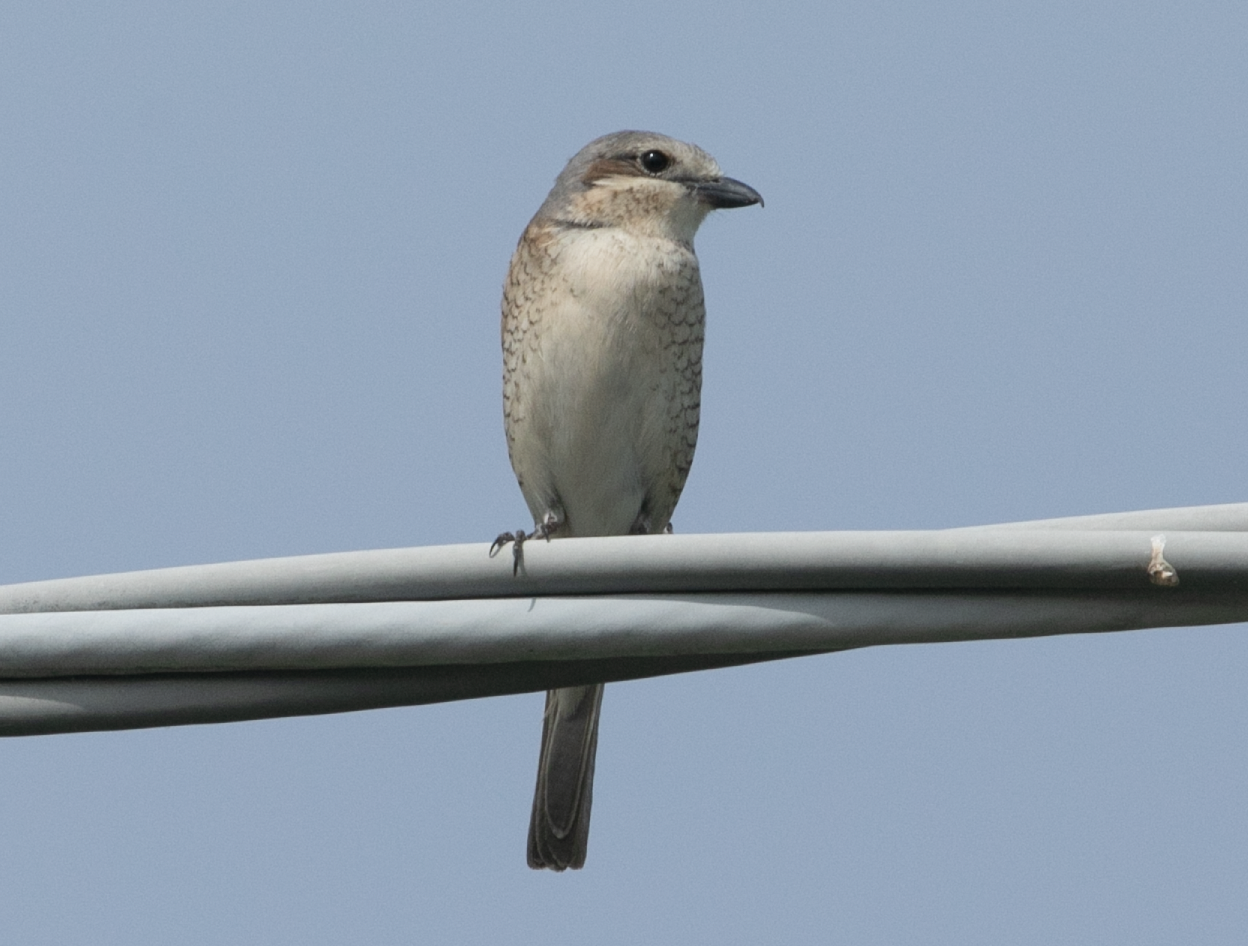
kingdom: Animalia
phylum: Chordata
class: Aves
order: Passeriformes
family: Laniidae
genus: Lanius
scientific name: Lanius collurio
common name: Red-backed shrike
